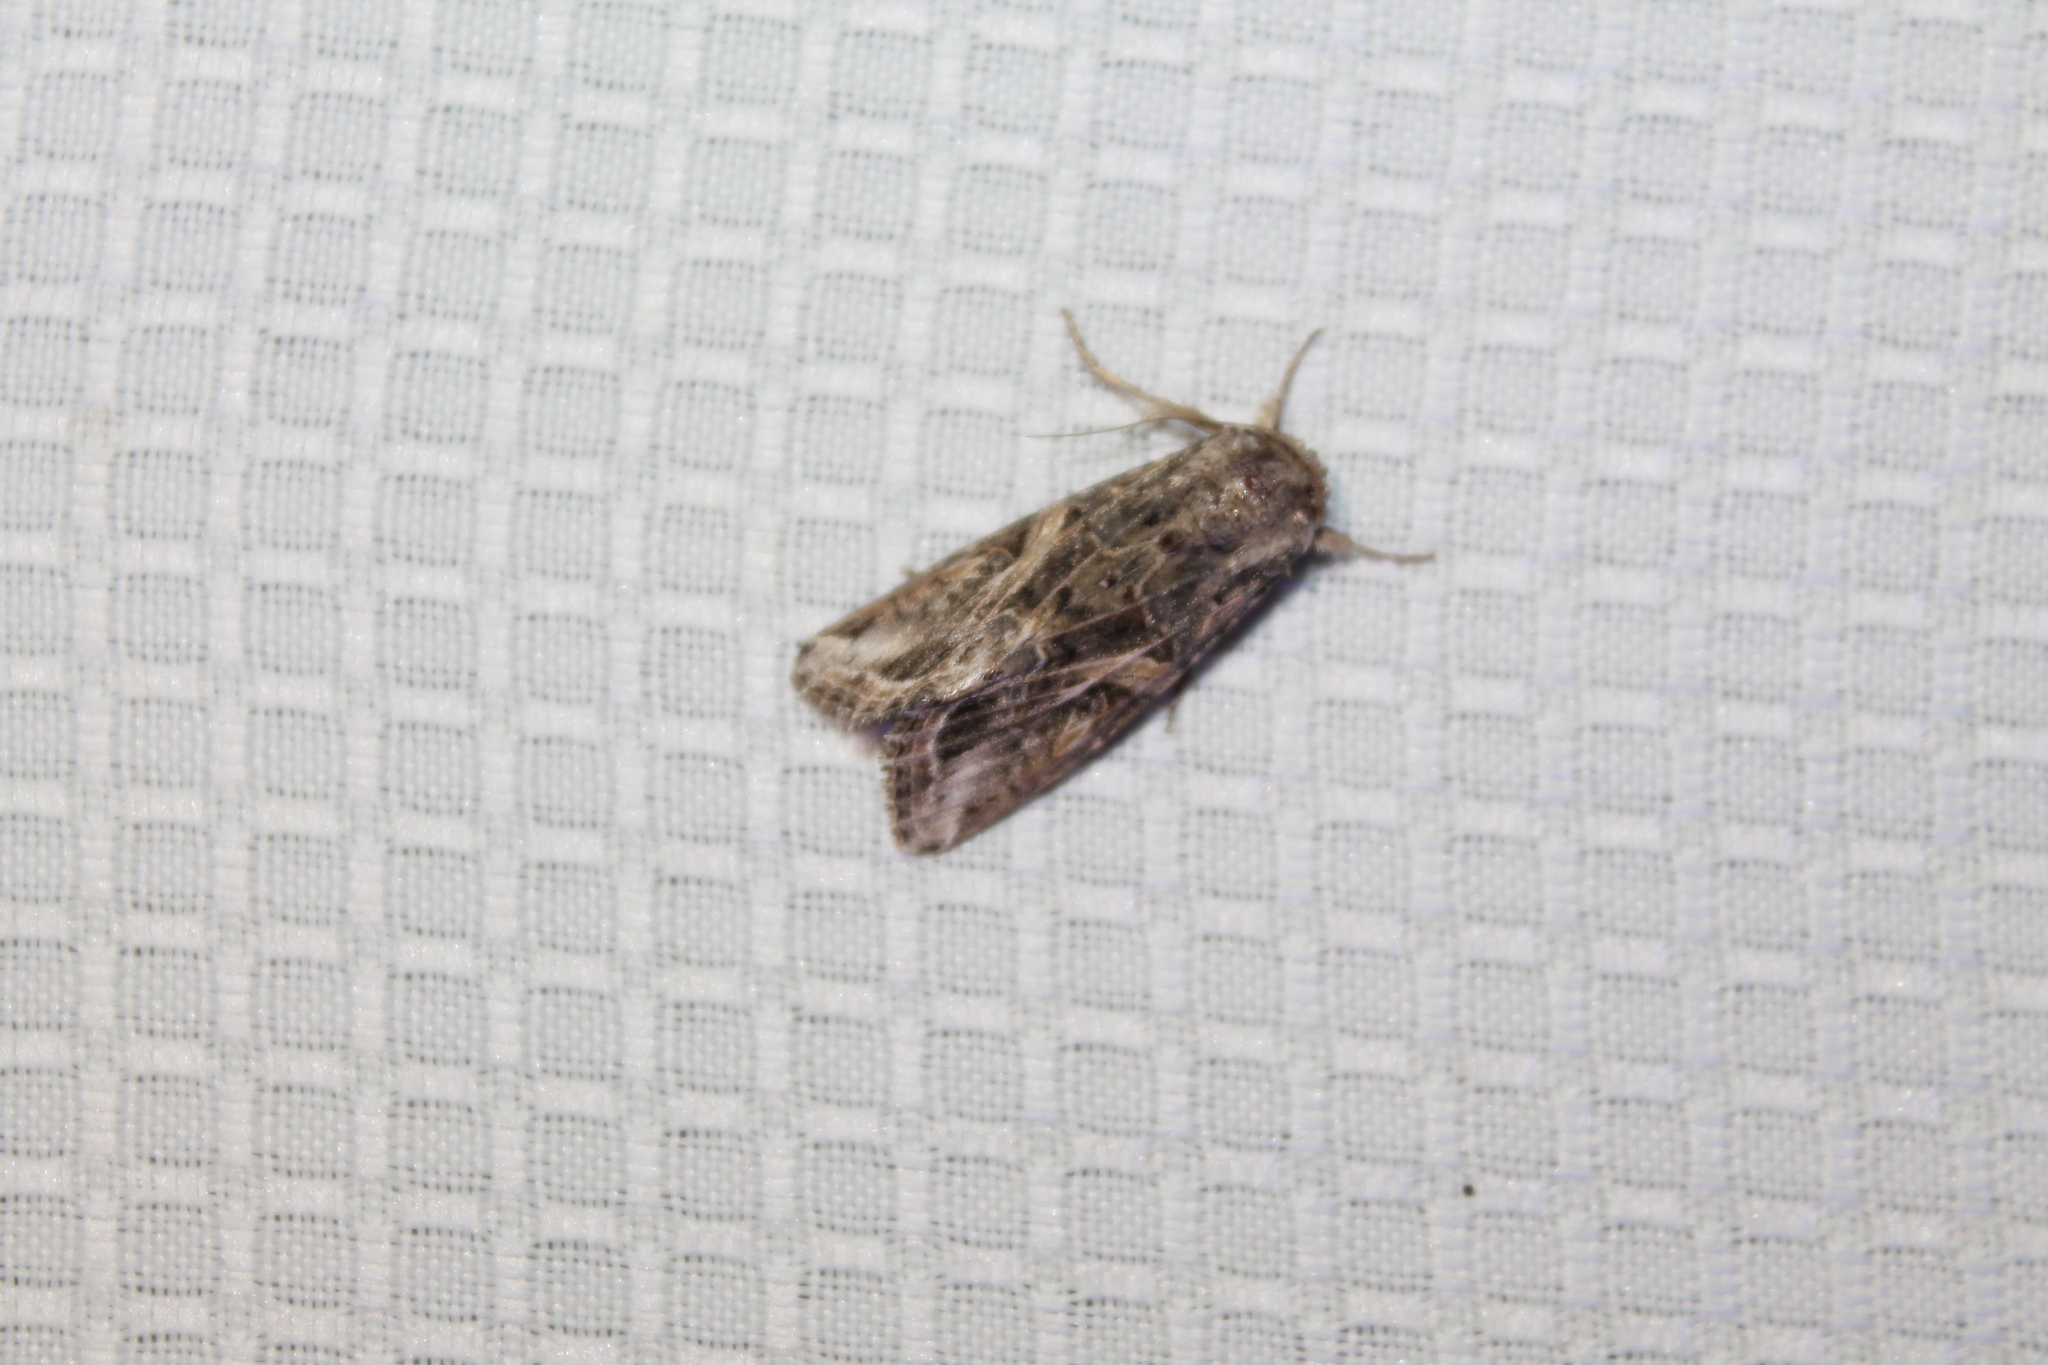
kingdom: Animalia
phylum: Arthropoda
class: Insecta
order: Lepidoptera
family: Noctuidae
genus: Spodoptera
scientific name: Spodoptera ornithogalli
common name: Yellow-striped armyworm
